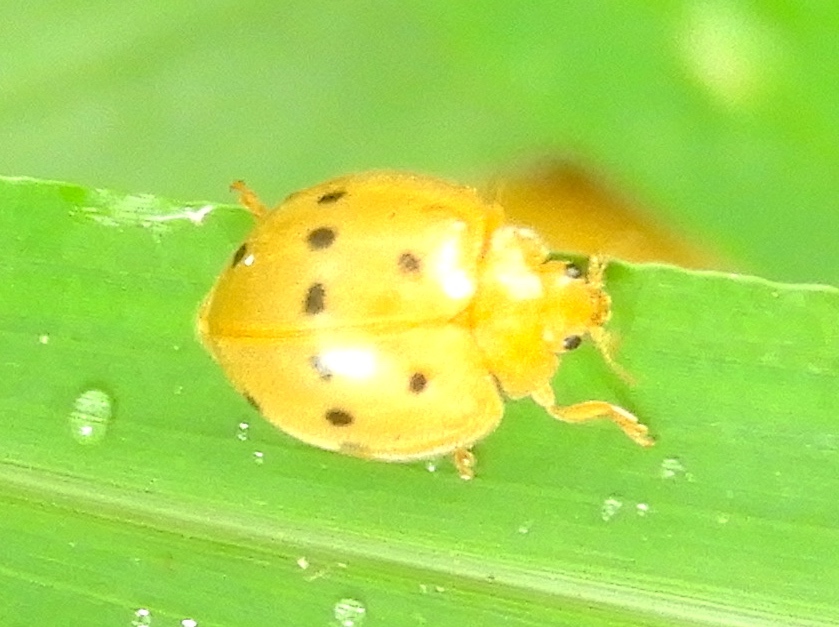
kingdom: Animalia
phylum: Arthropoda
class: Insecta
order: Coleoptera
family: Coccinellidae
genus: Epilachna
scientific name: Epilachna
